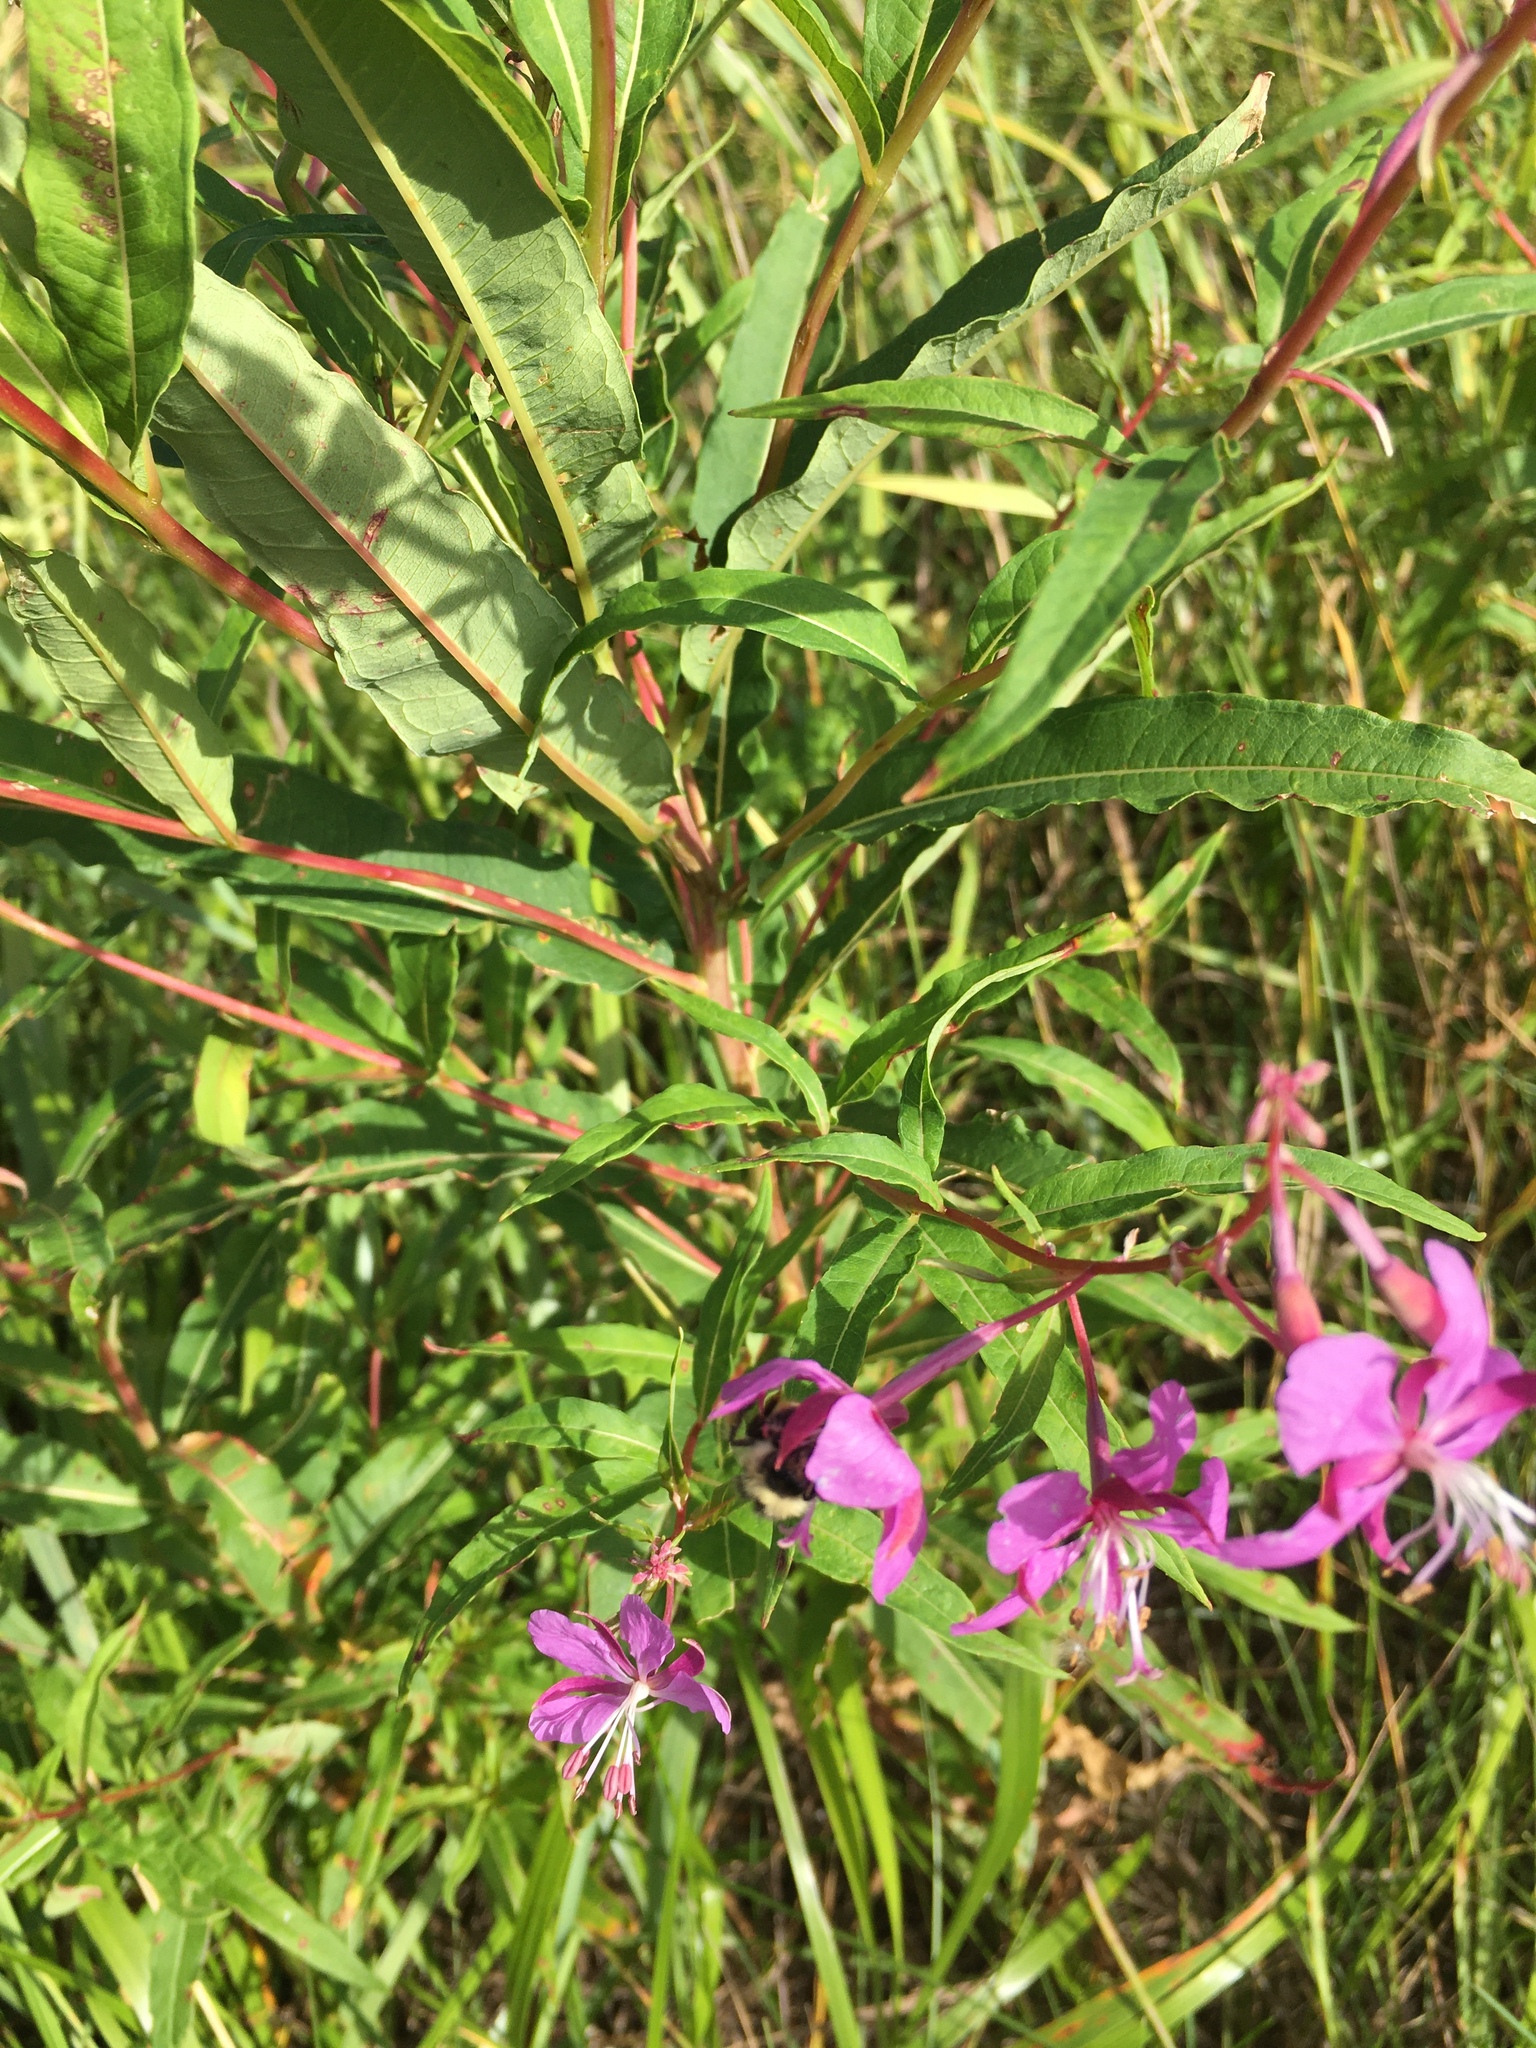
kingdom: Plantae
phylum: Tracheophyta
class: Magnoliopsida
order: Myrtales
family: Onagraceae
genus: Chamaenerion
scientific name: Chamaenerion angustifolium
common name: Fireweed
